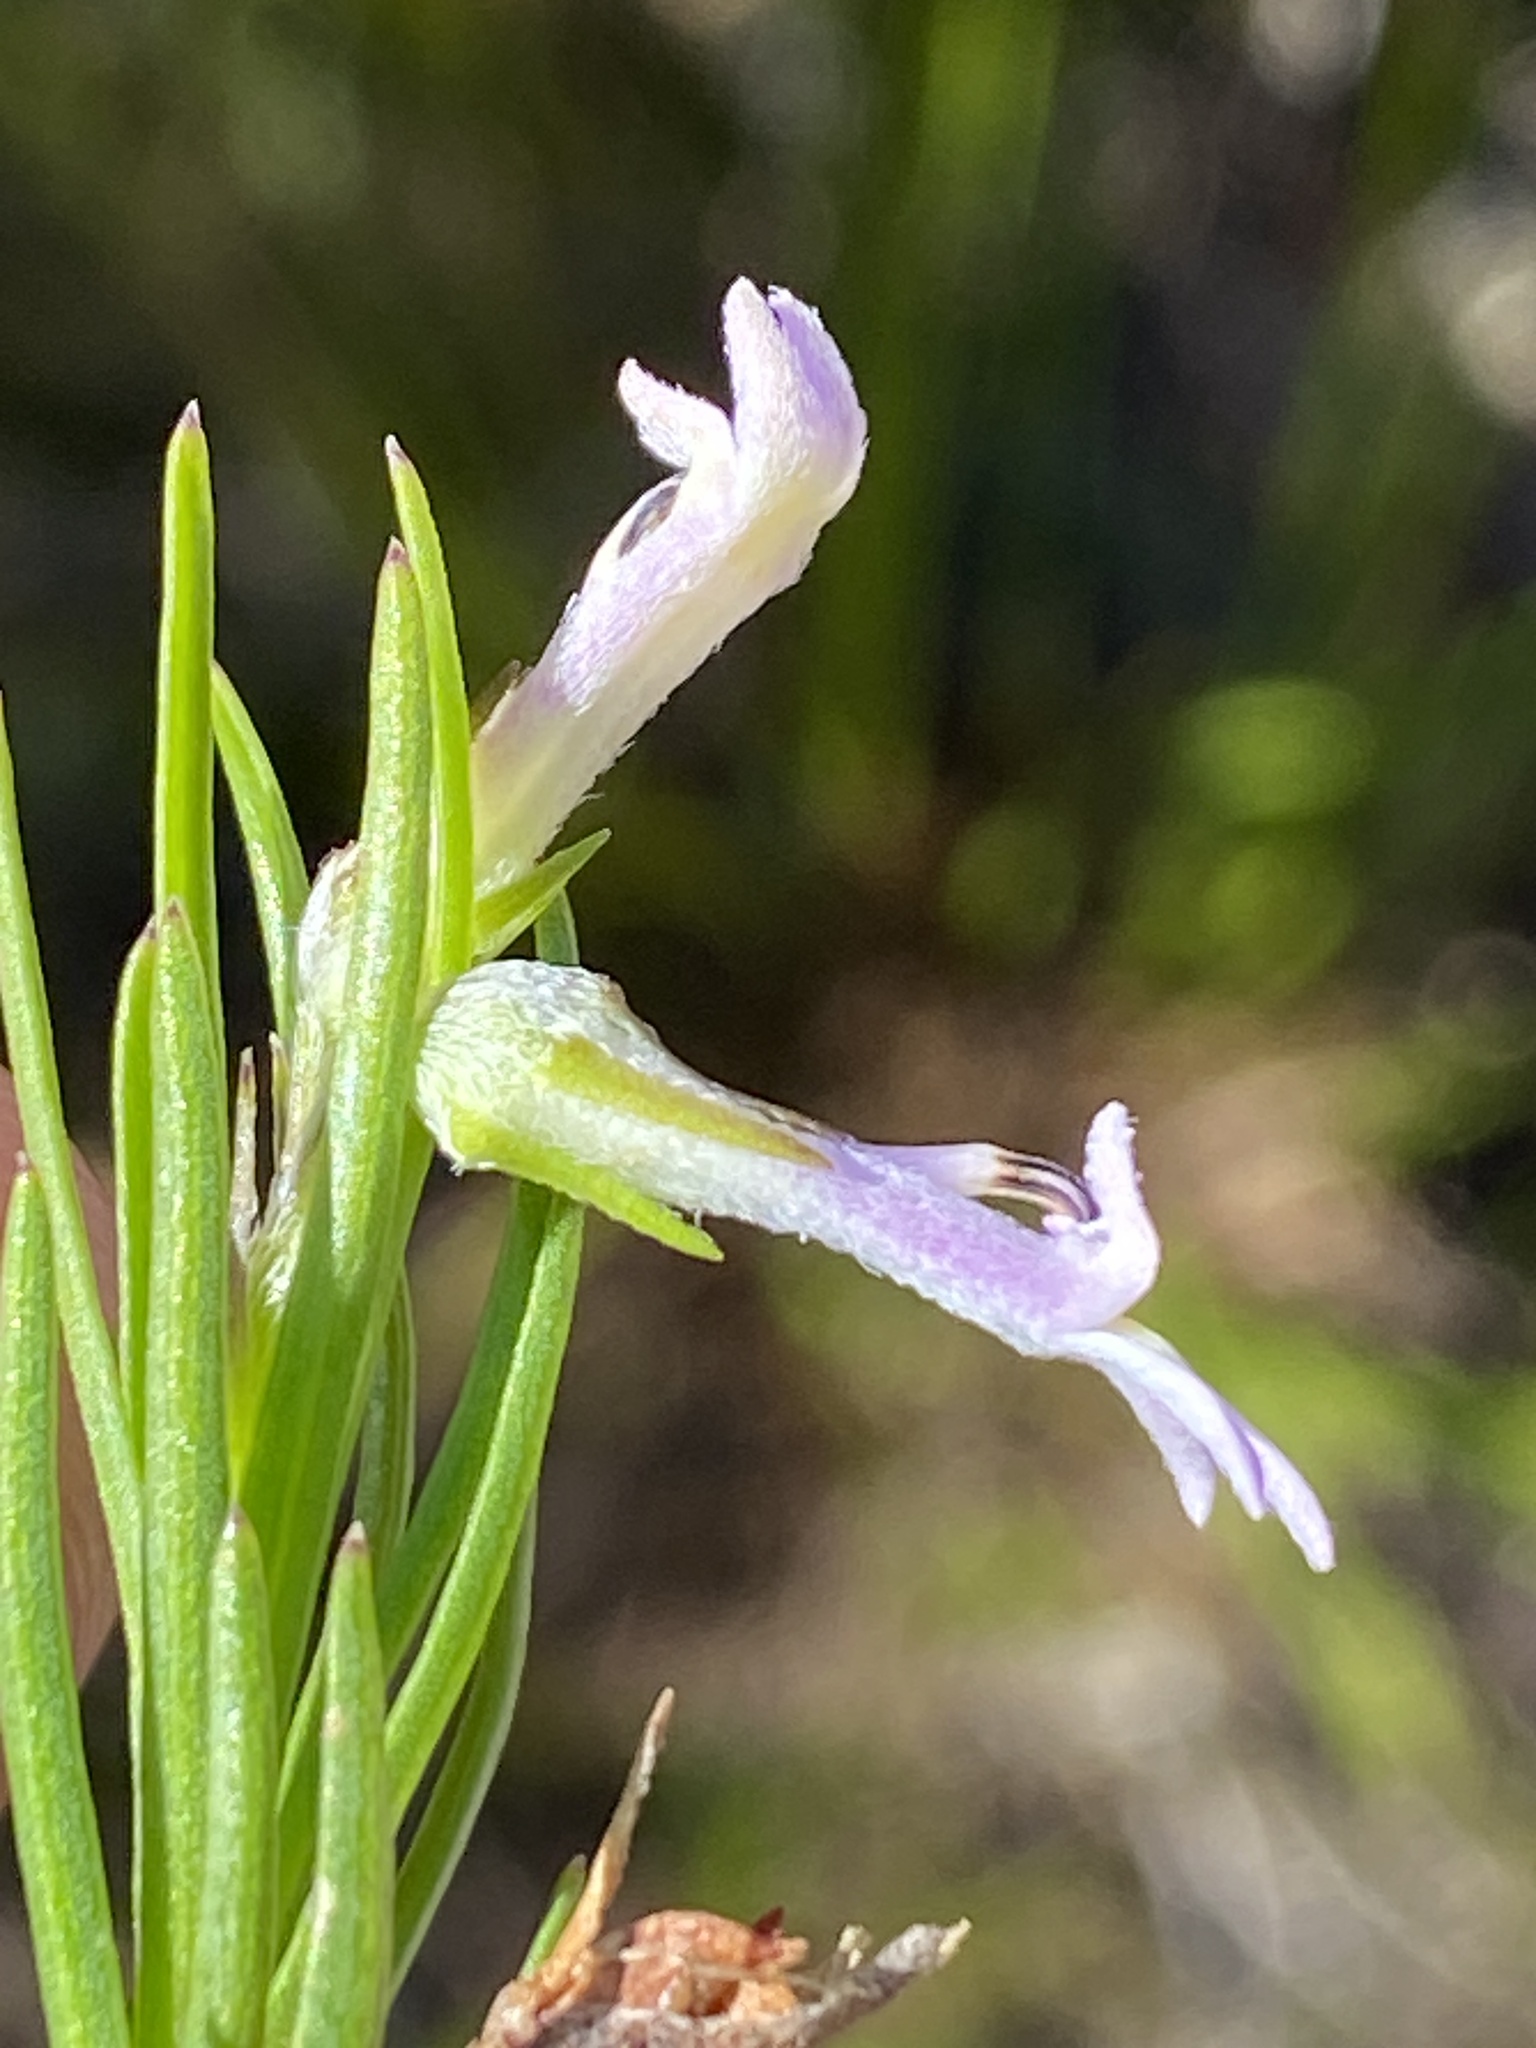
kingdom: Plantae
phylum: Tracheophyta
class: Magnoliopsida
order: Asterales
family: Campanulaceae
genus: Lobelia
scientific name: Lobelia pinifolia
